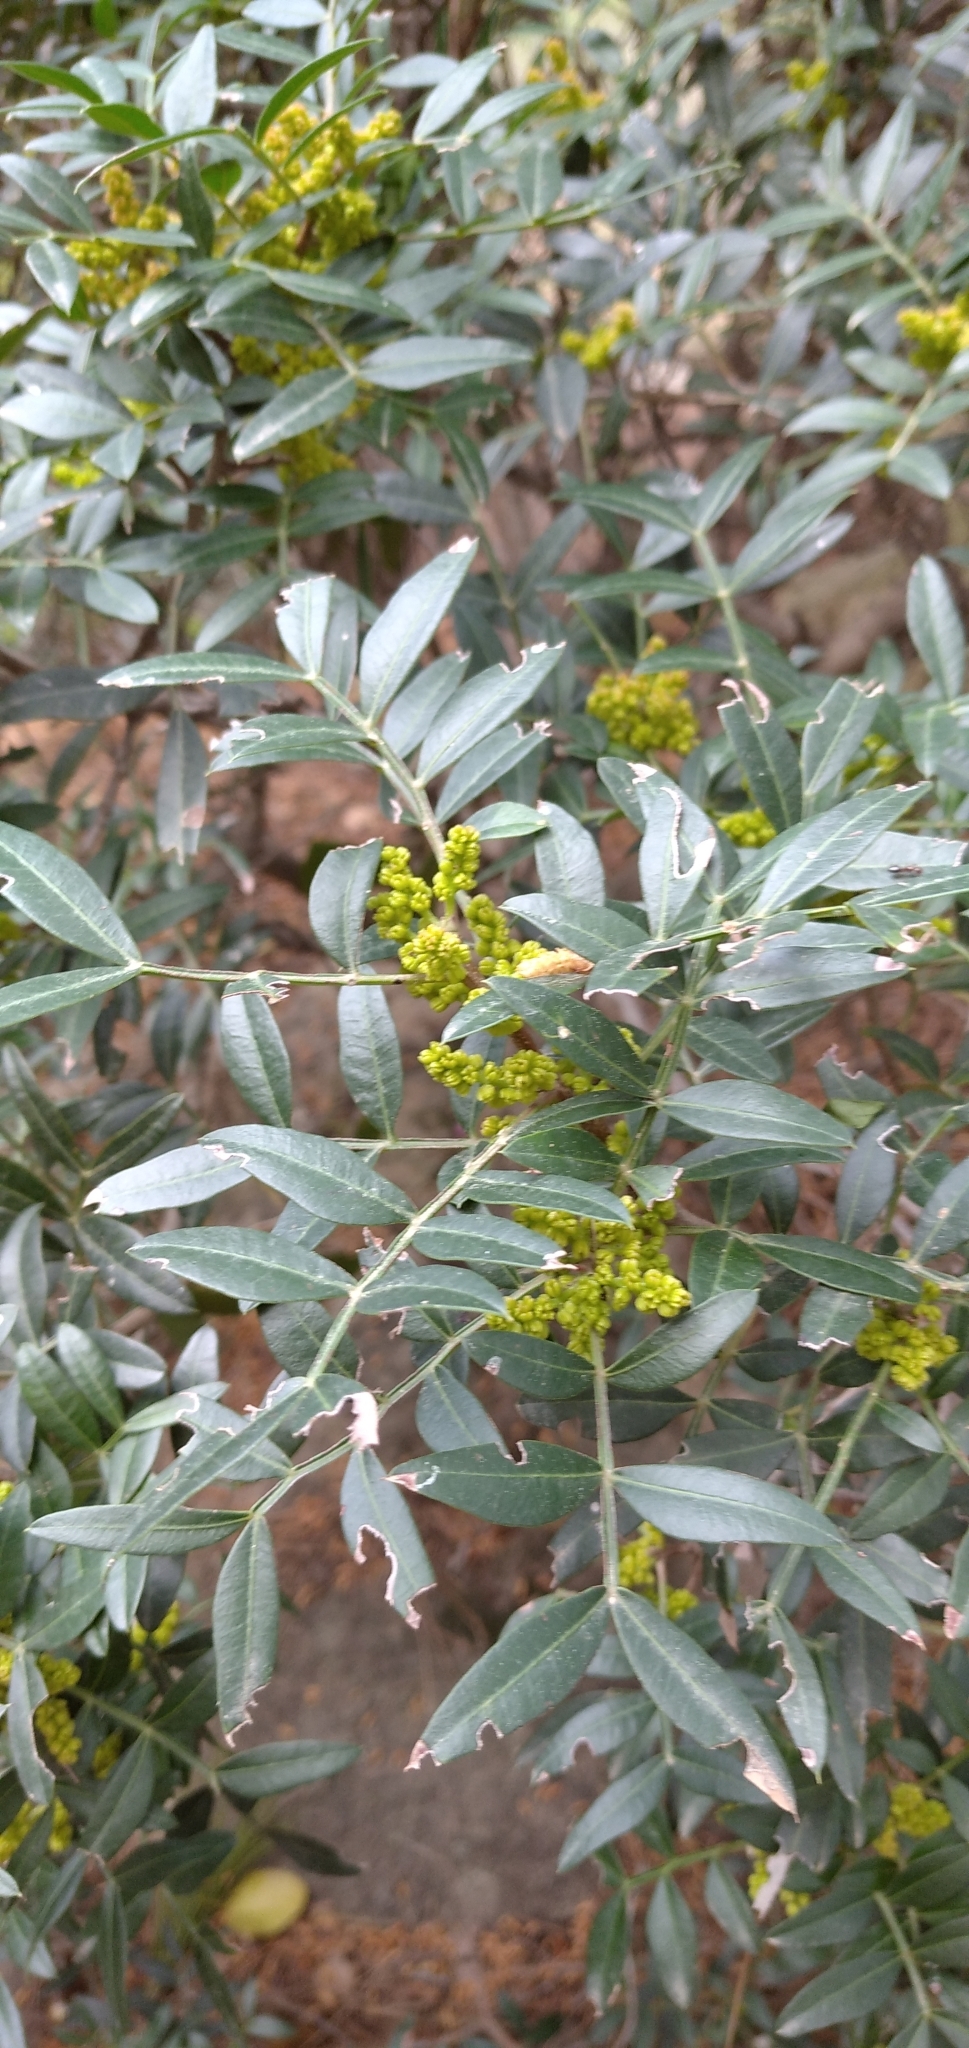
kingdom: Plantae
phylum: Tracheophyta
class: Magnoliopsida
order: Sapindales
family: Anacardiaceae
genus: Pistacia
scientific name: Pistacia lentiscus
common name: Lentisk
